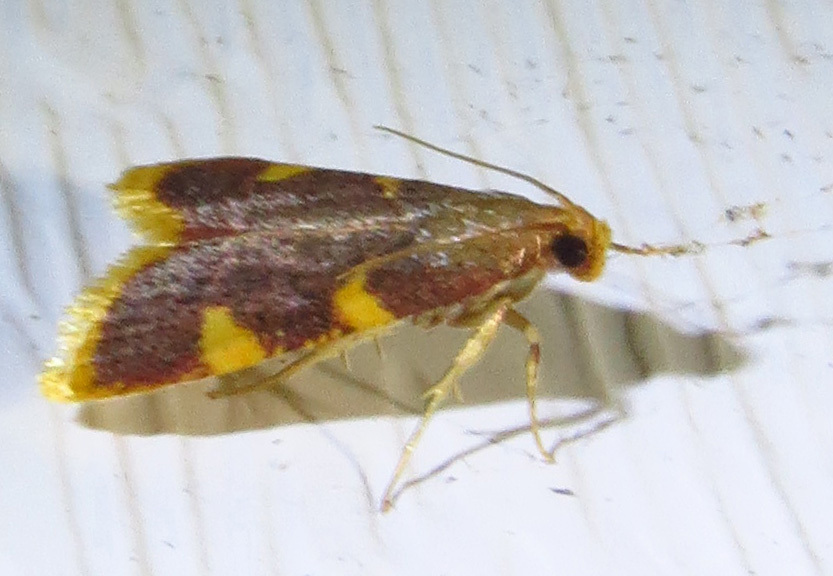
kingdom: Animalia
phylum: Arthropoda
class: Insecta
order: Lepidoptera
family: Pyralidae
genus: Hypsopygia
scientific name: Hypsopygia costalis
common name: Gold triangle
